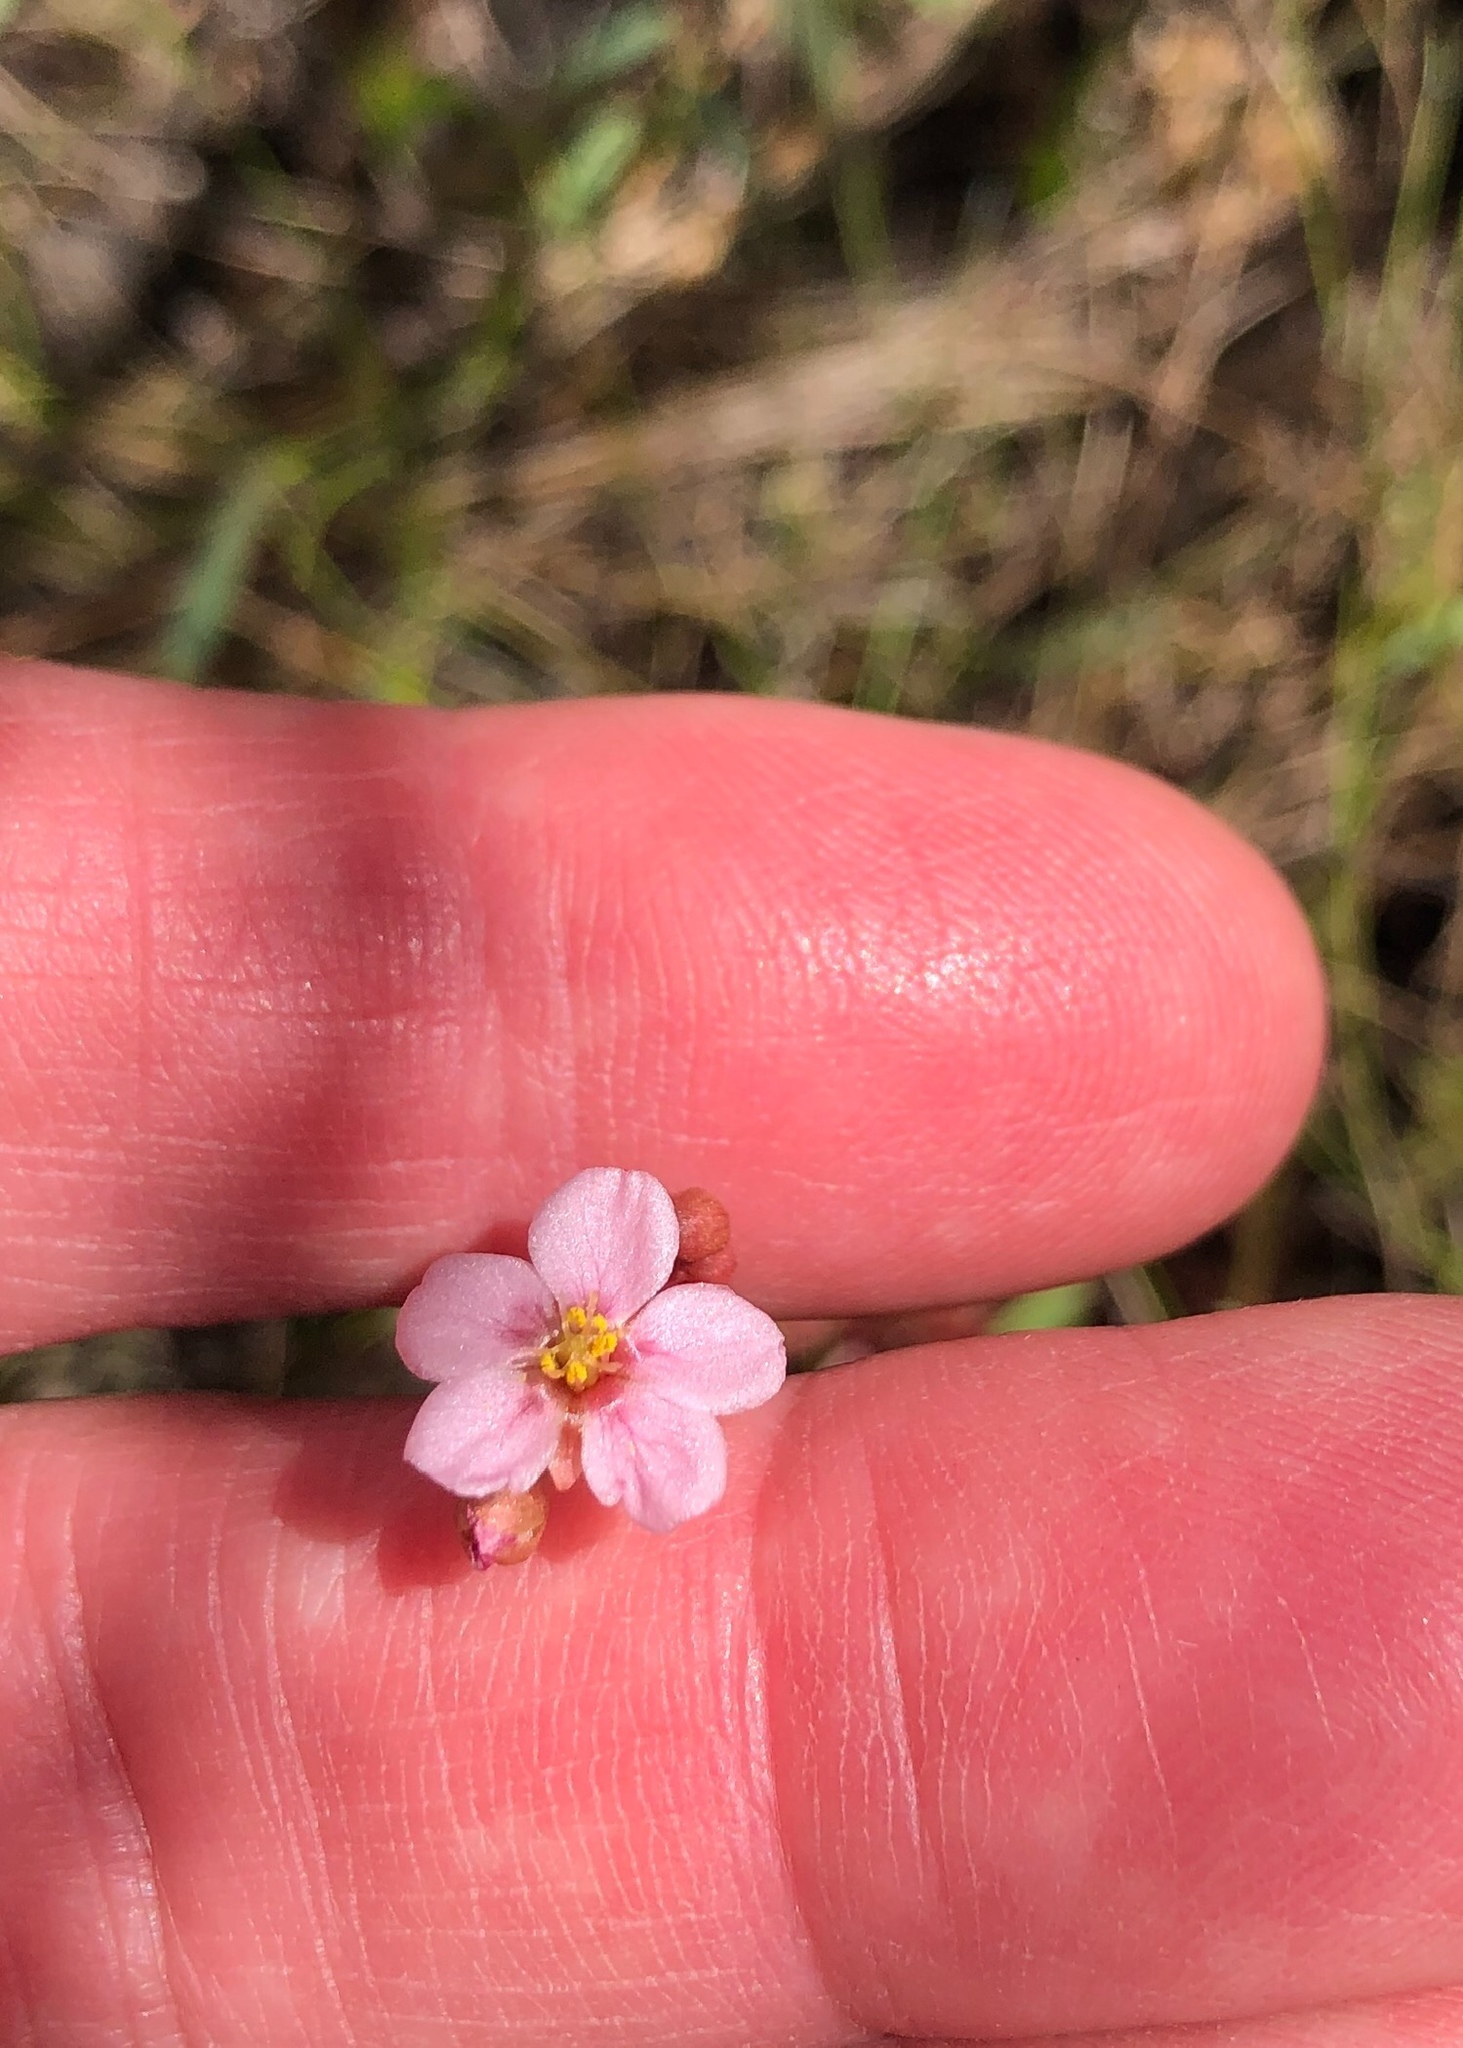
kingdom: Plantae
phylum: Tracheophyta
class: Magnoliopsida
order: Caryophyllales
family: Droseraceae
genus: Drosera
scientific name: Drosera capillaris
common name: Pink sundew
